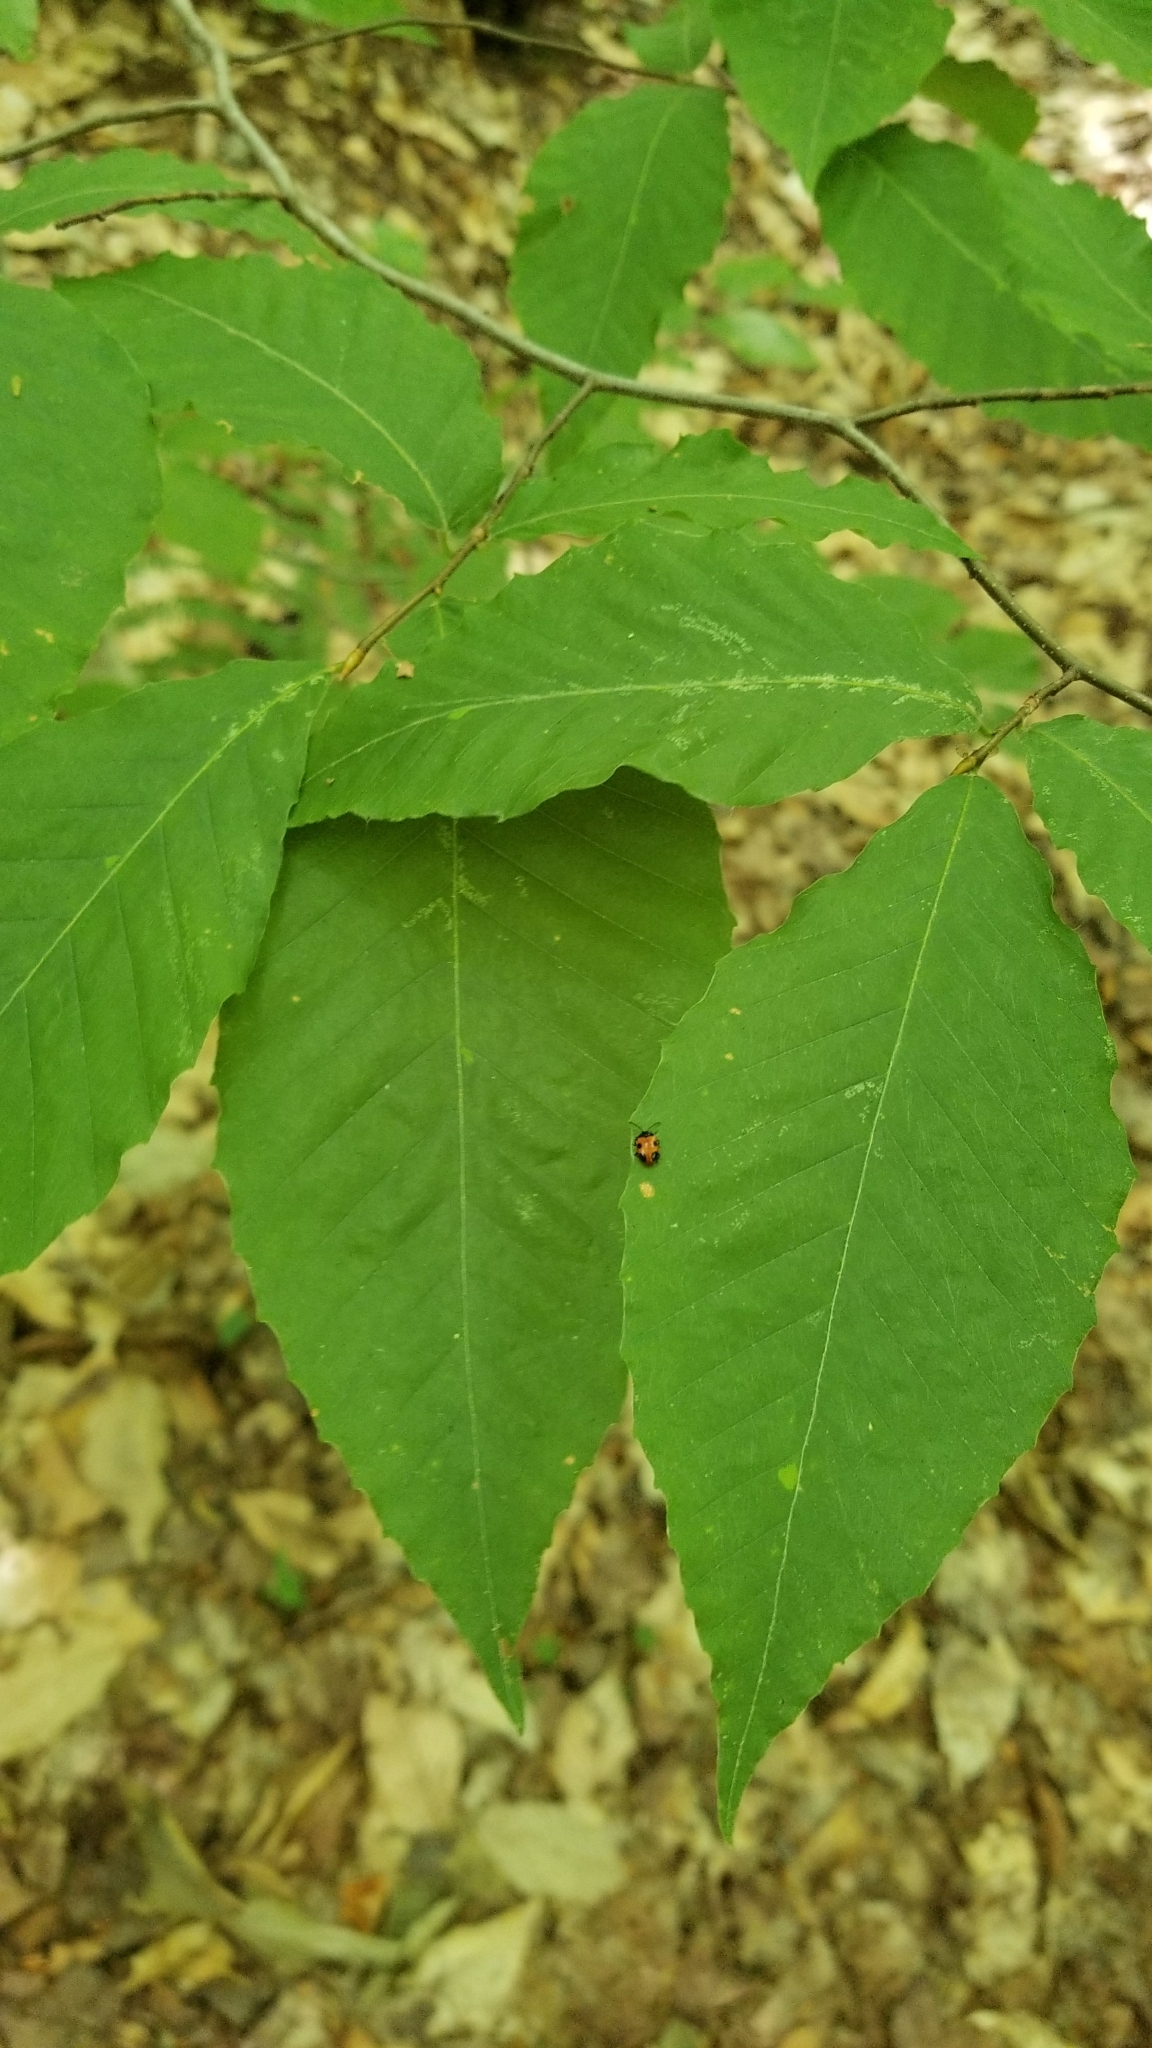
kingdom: Plantae
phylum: Tracheophyta
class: Magnoliopsida
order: Fagales
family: Fagaceae
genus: Fagus
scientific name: Fagus grandifolia
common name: American beech
